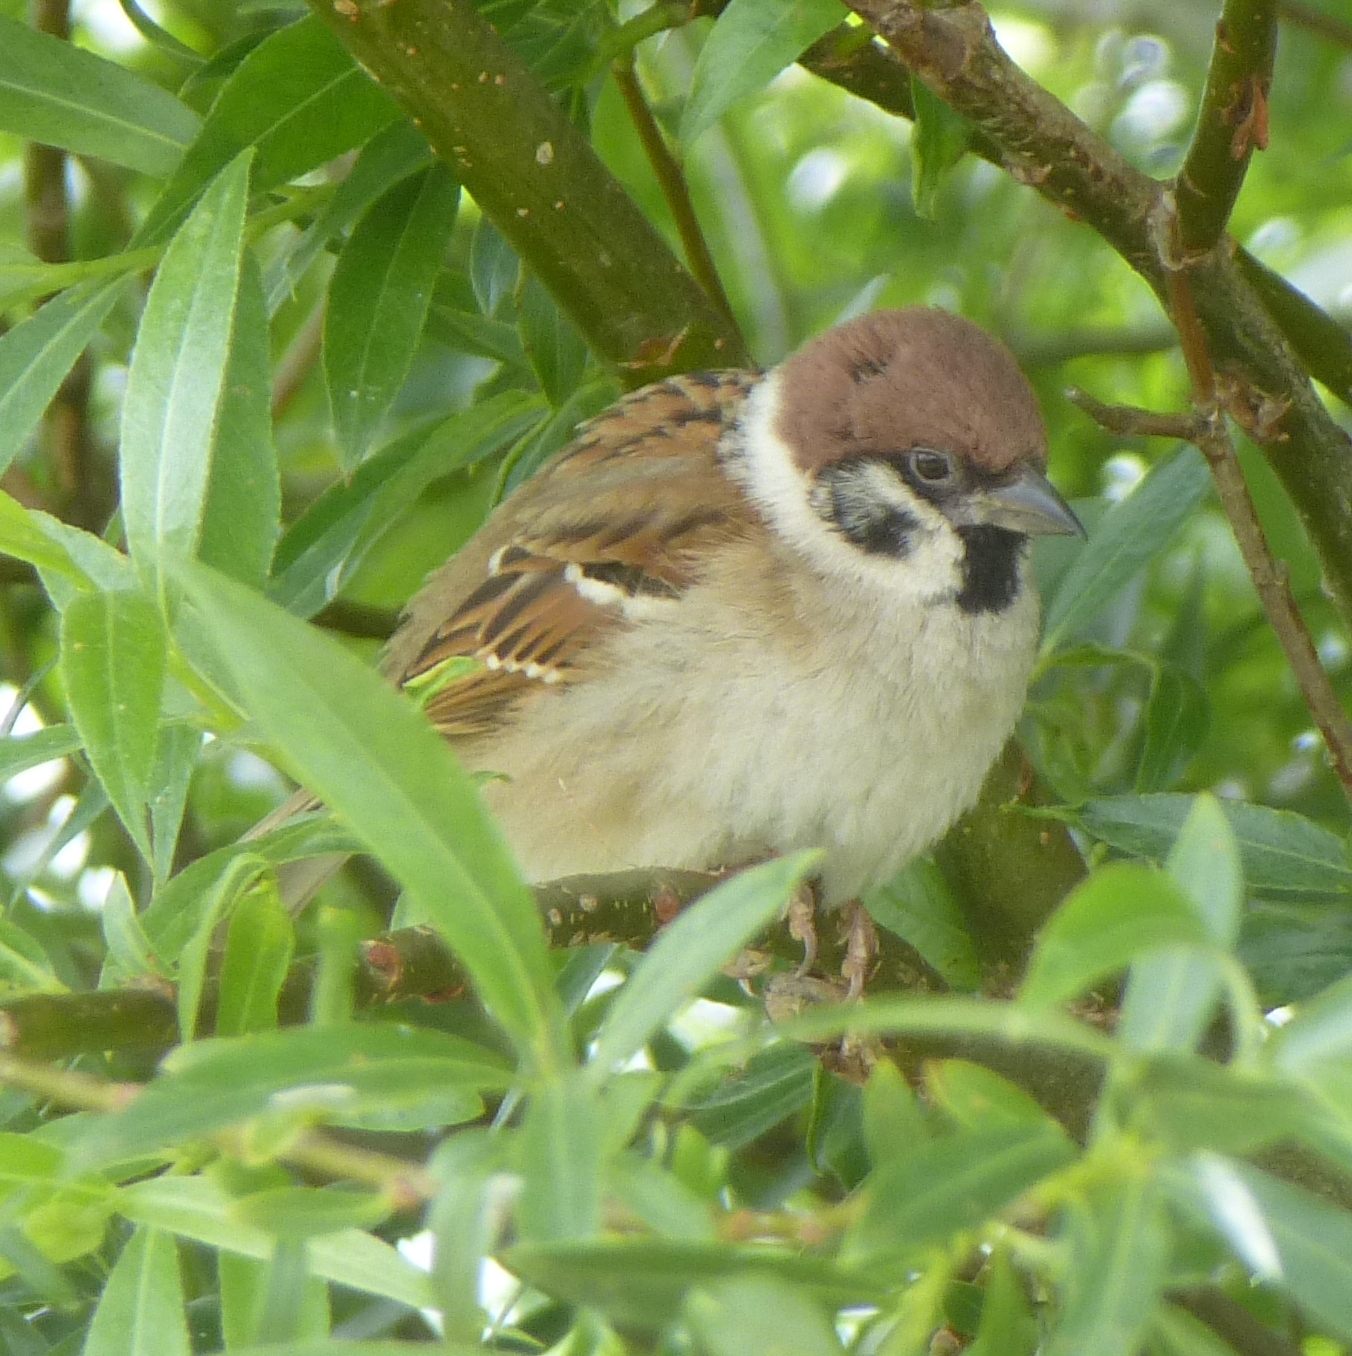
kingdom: Animalia
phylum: Chordata
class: Aves
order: Passeriformes
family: Passeridae
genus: Passer
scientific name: Passer montanus
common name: Eurasian tree sparrow
